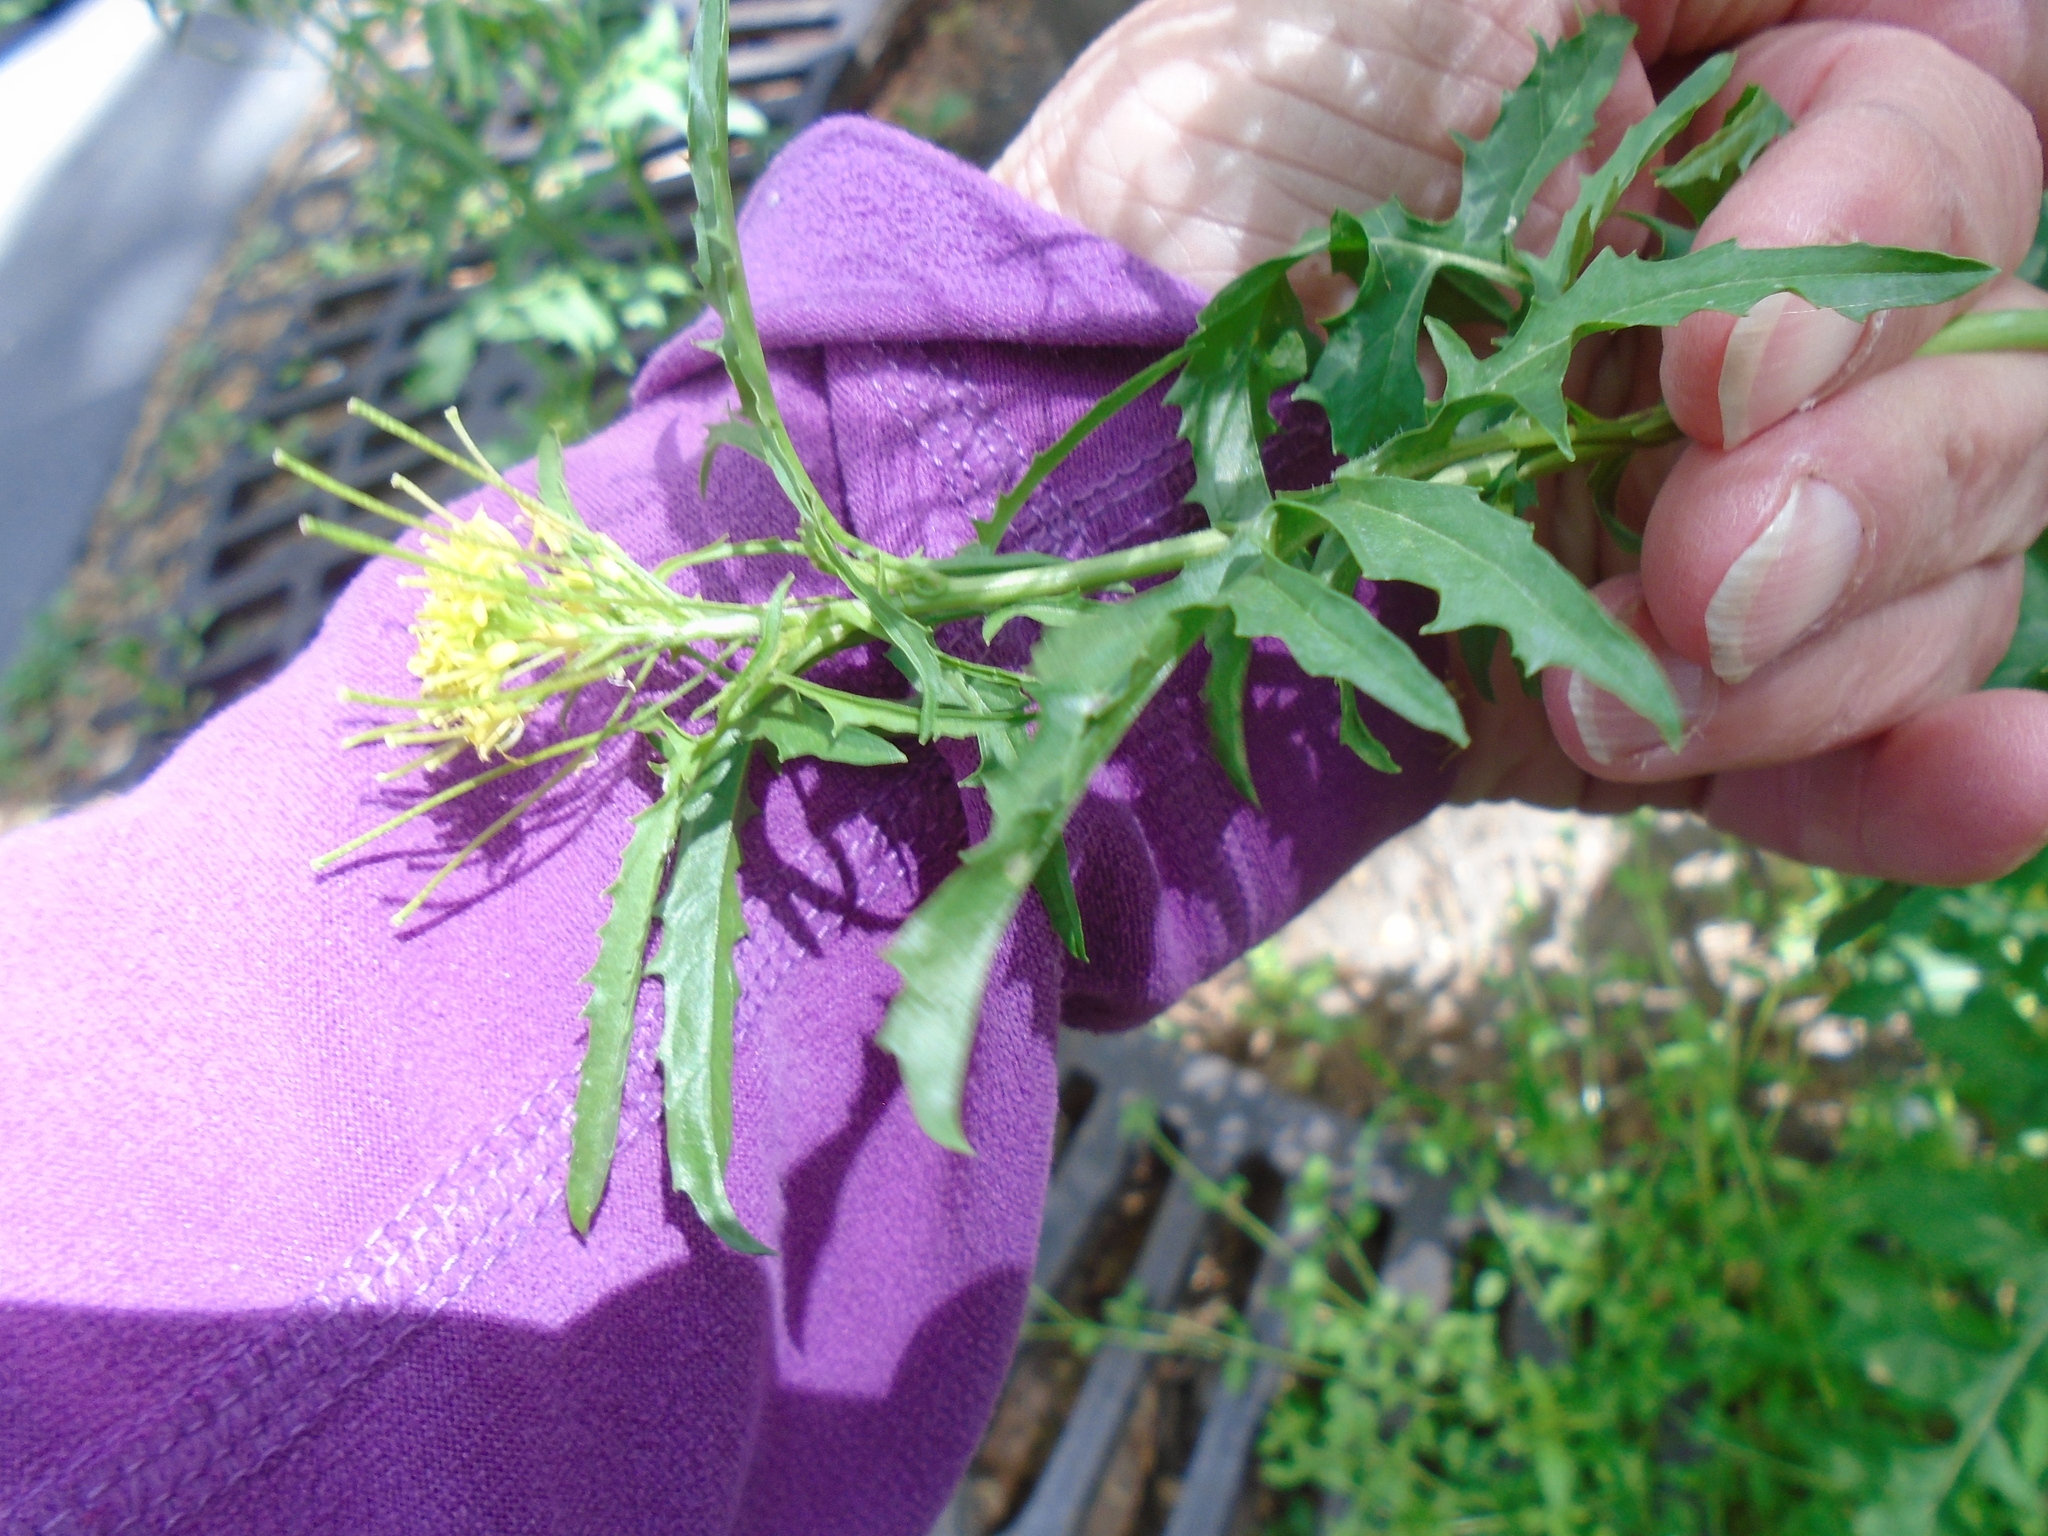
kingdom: Plantae
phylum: Tracheophyta
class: Magnoliopsida
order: Brassicales
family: Brassicaceae
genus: Sisymbrium
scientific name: Sisymbrium irio
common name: London rocket
